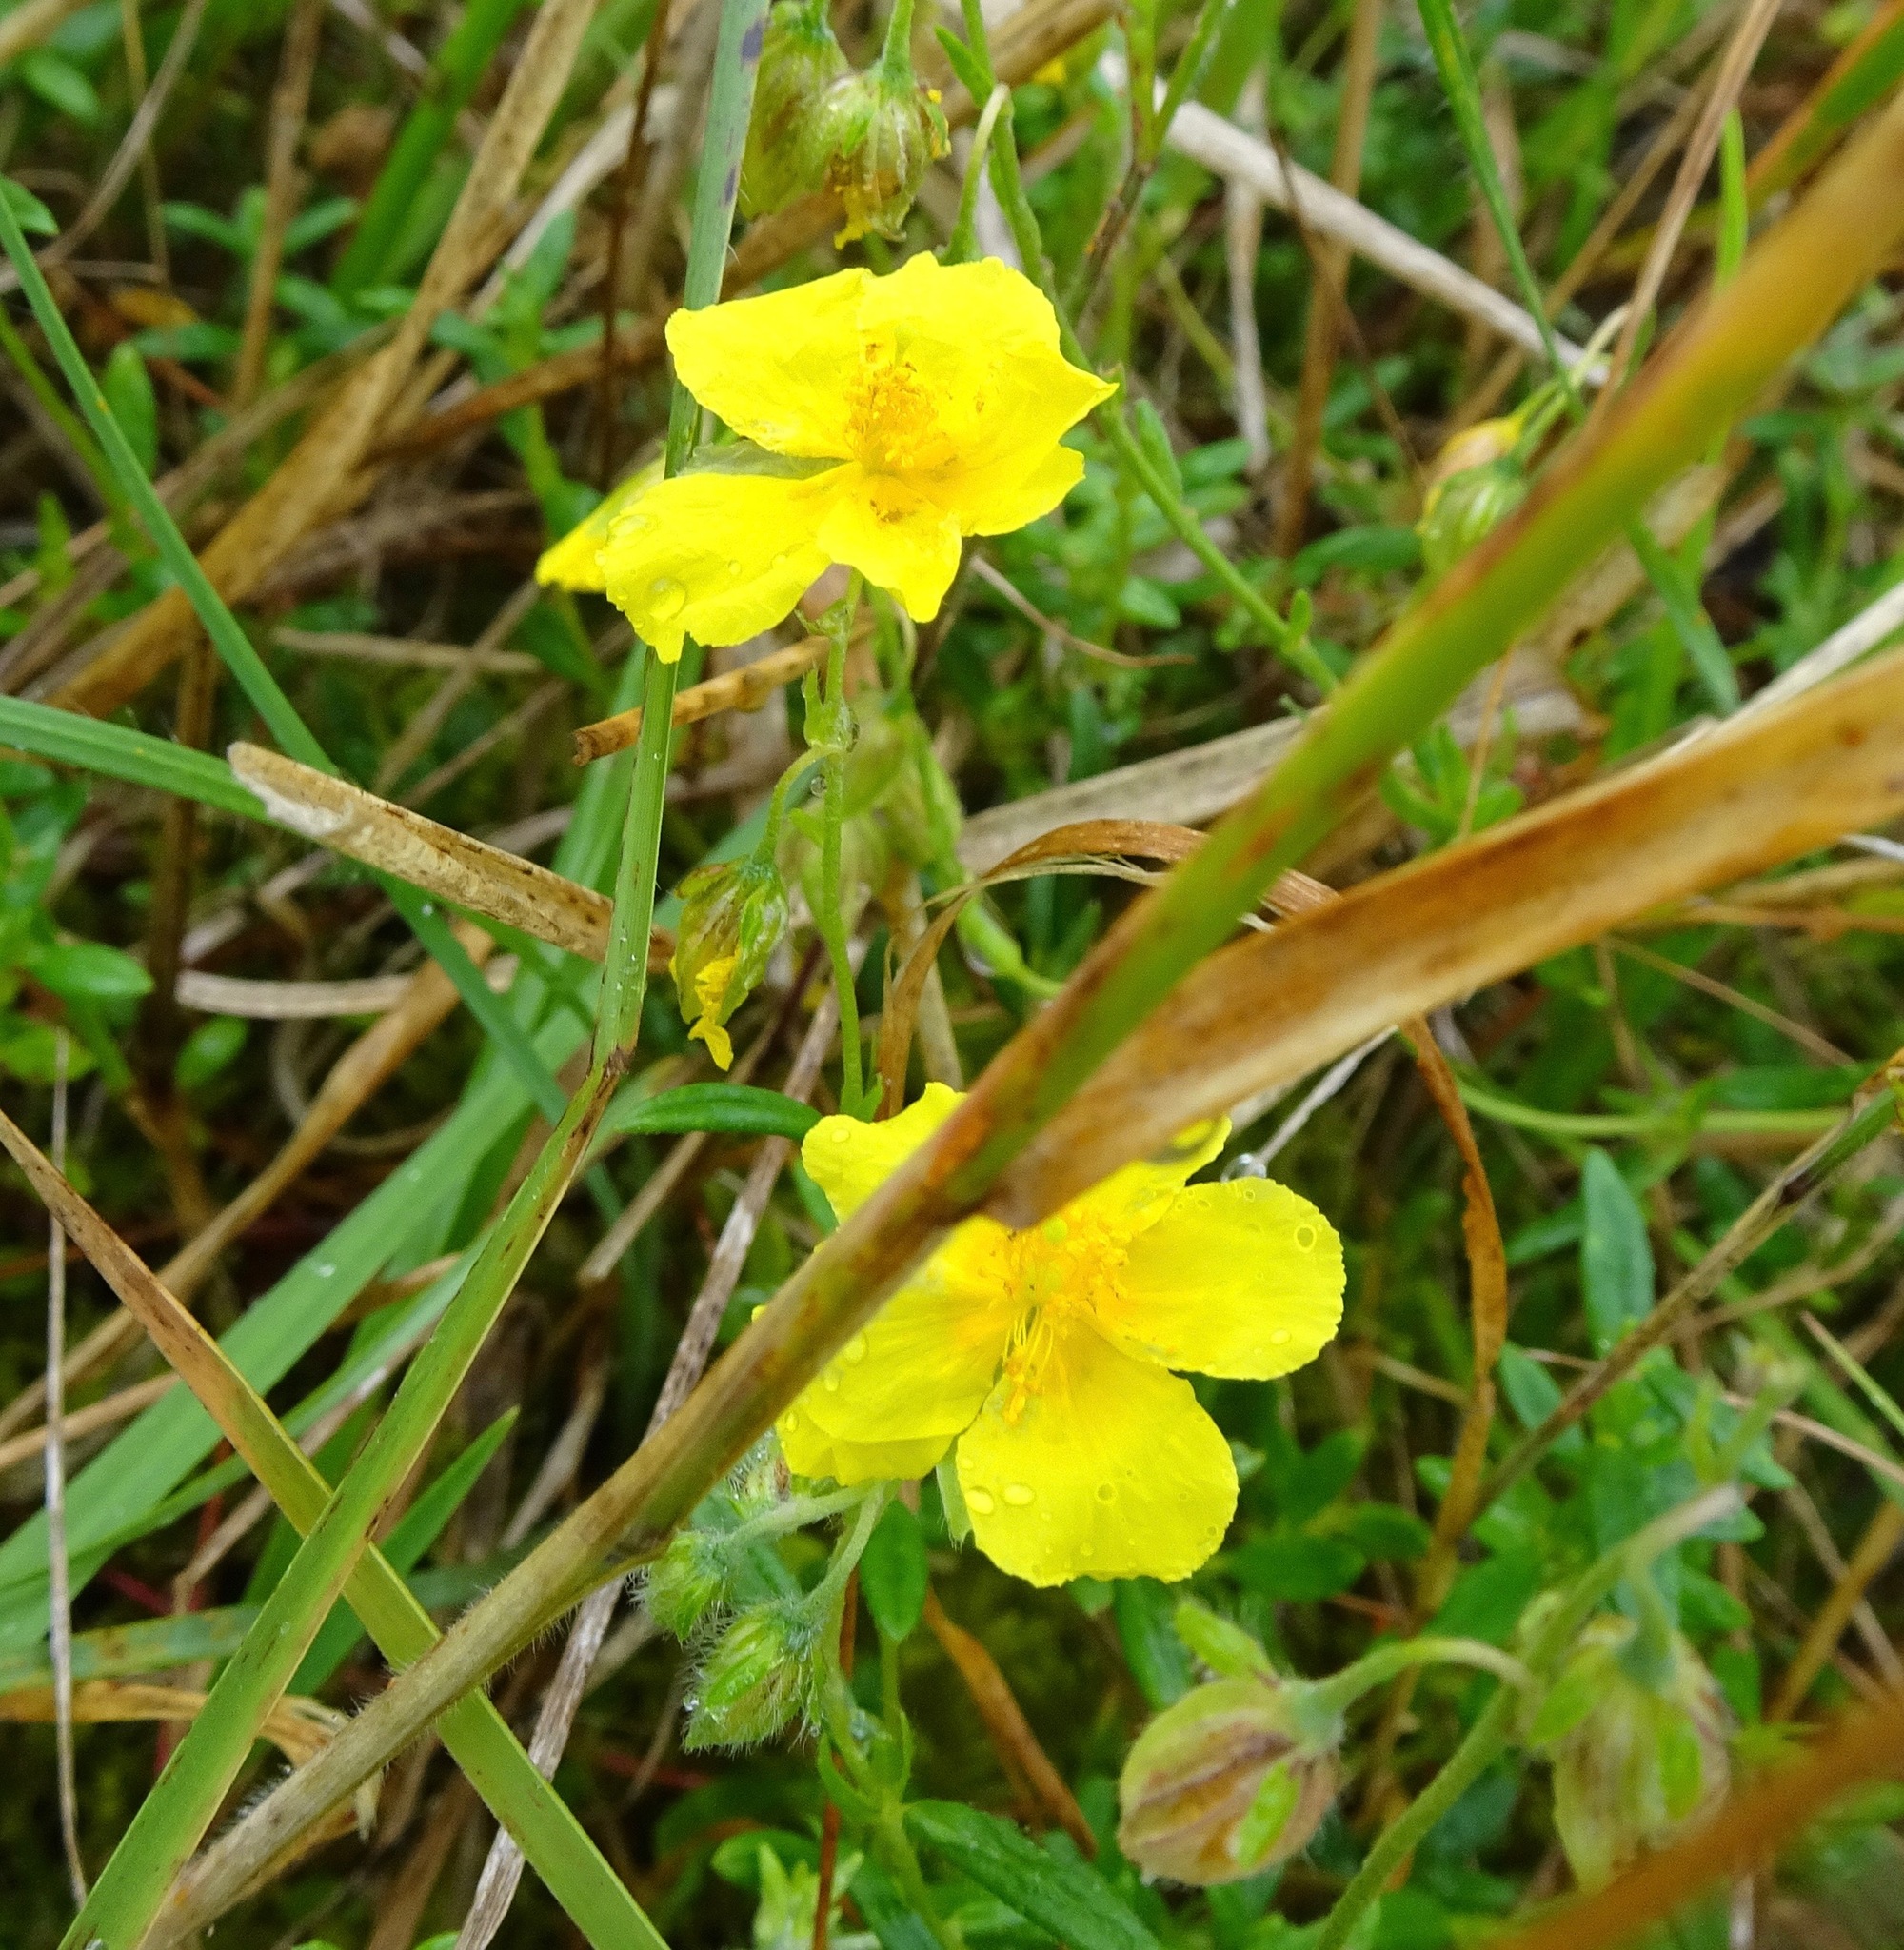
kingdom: Plantae
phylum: Tracheophyta
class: Magnoliopsida
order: Malvales
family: Cistaceae
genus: Helianthemum
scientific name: Helianthemum nummularium
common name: Common rock-rose
